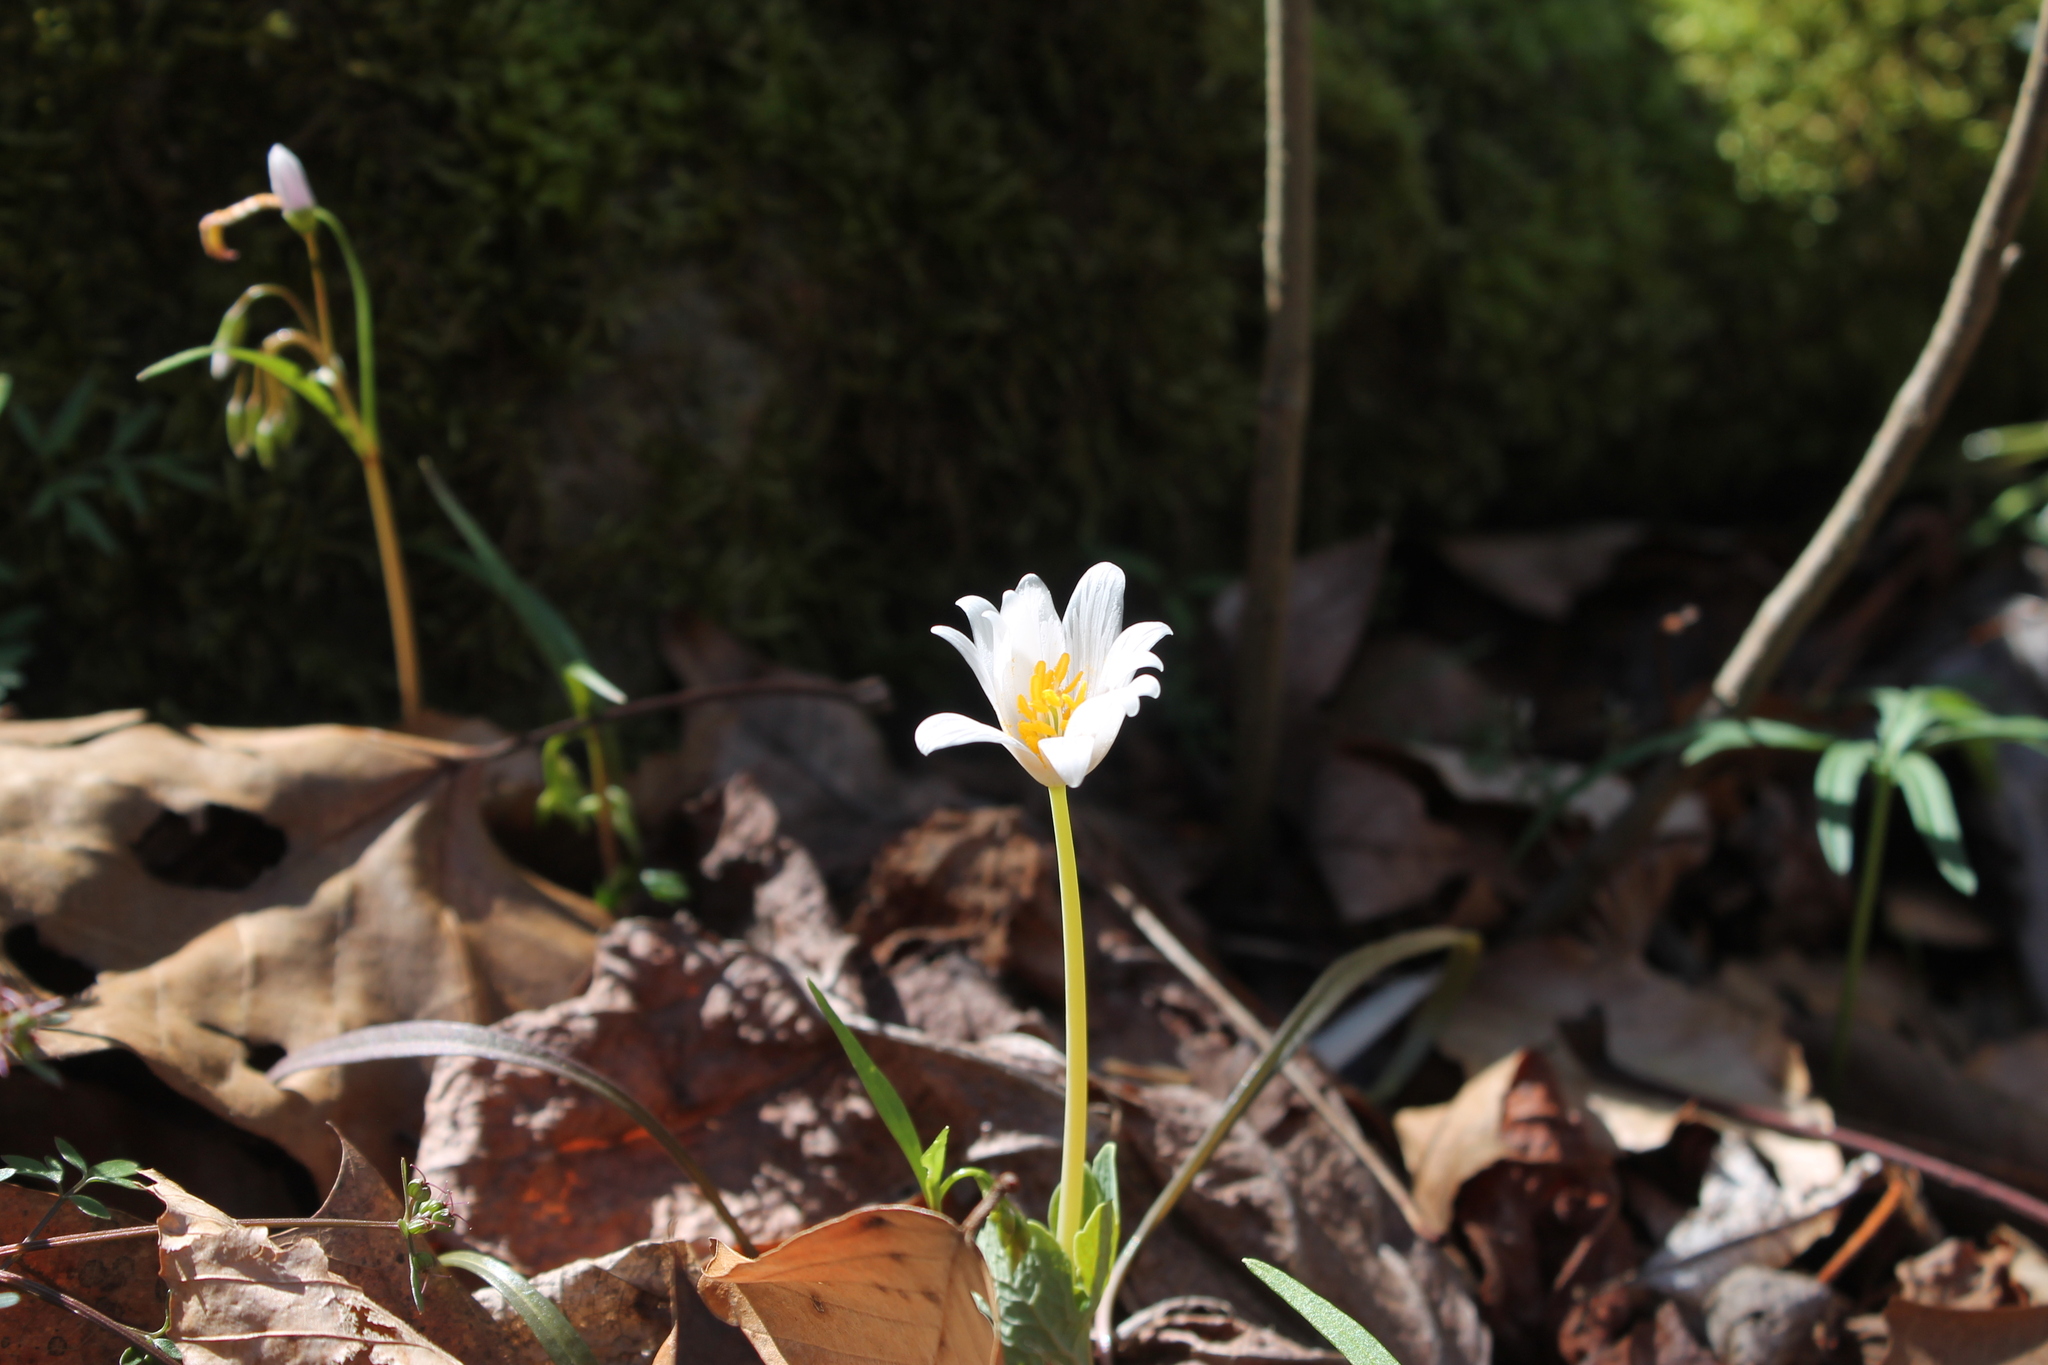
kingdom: Plantae
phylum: Tracheophyta
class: Magnoliopsida
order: Ranunculales
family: Papaveraceae
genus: Sanguinaria
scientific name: Sanguinaria canadensis
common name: Bloodroot
